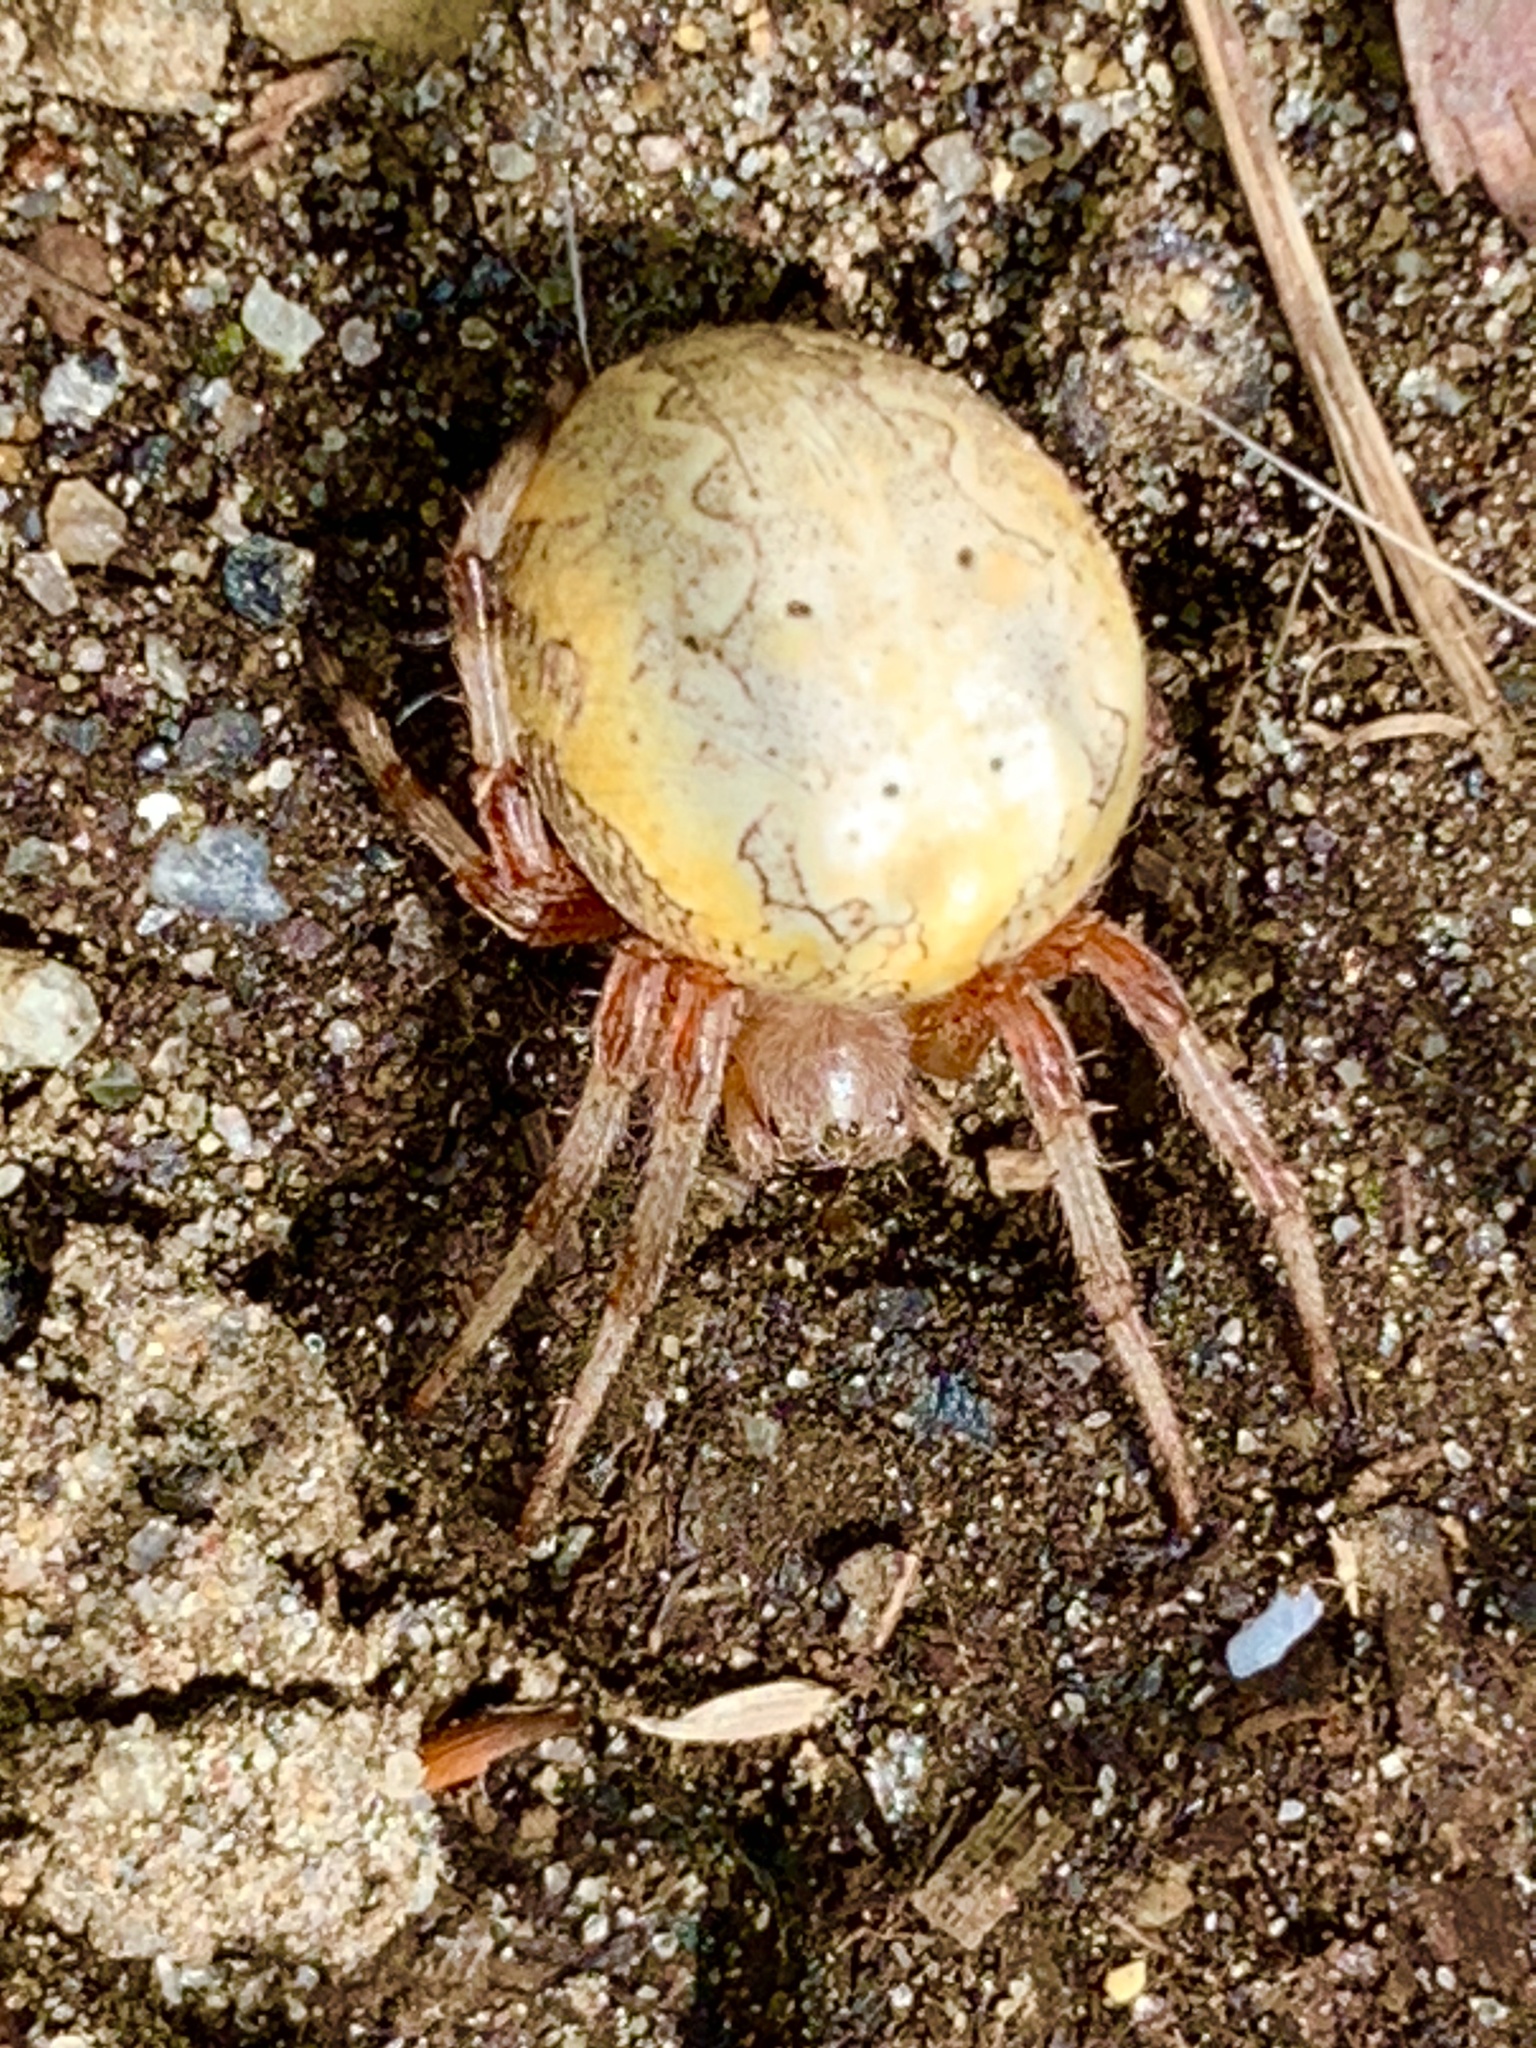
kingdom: Animalia
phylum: Arthropoda
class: Arachnida
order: Araneae
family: Araneidae
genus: Araneus
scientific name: Araneus marmoreus
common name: Marbled orbweaver
